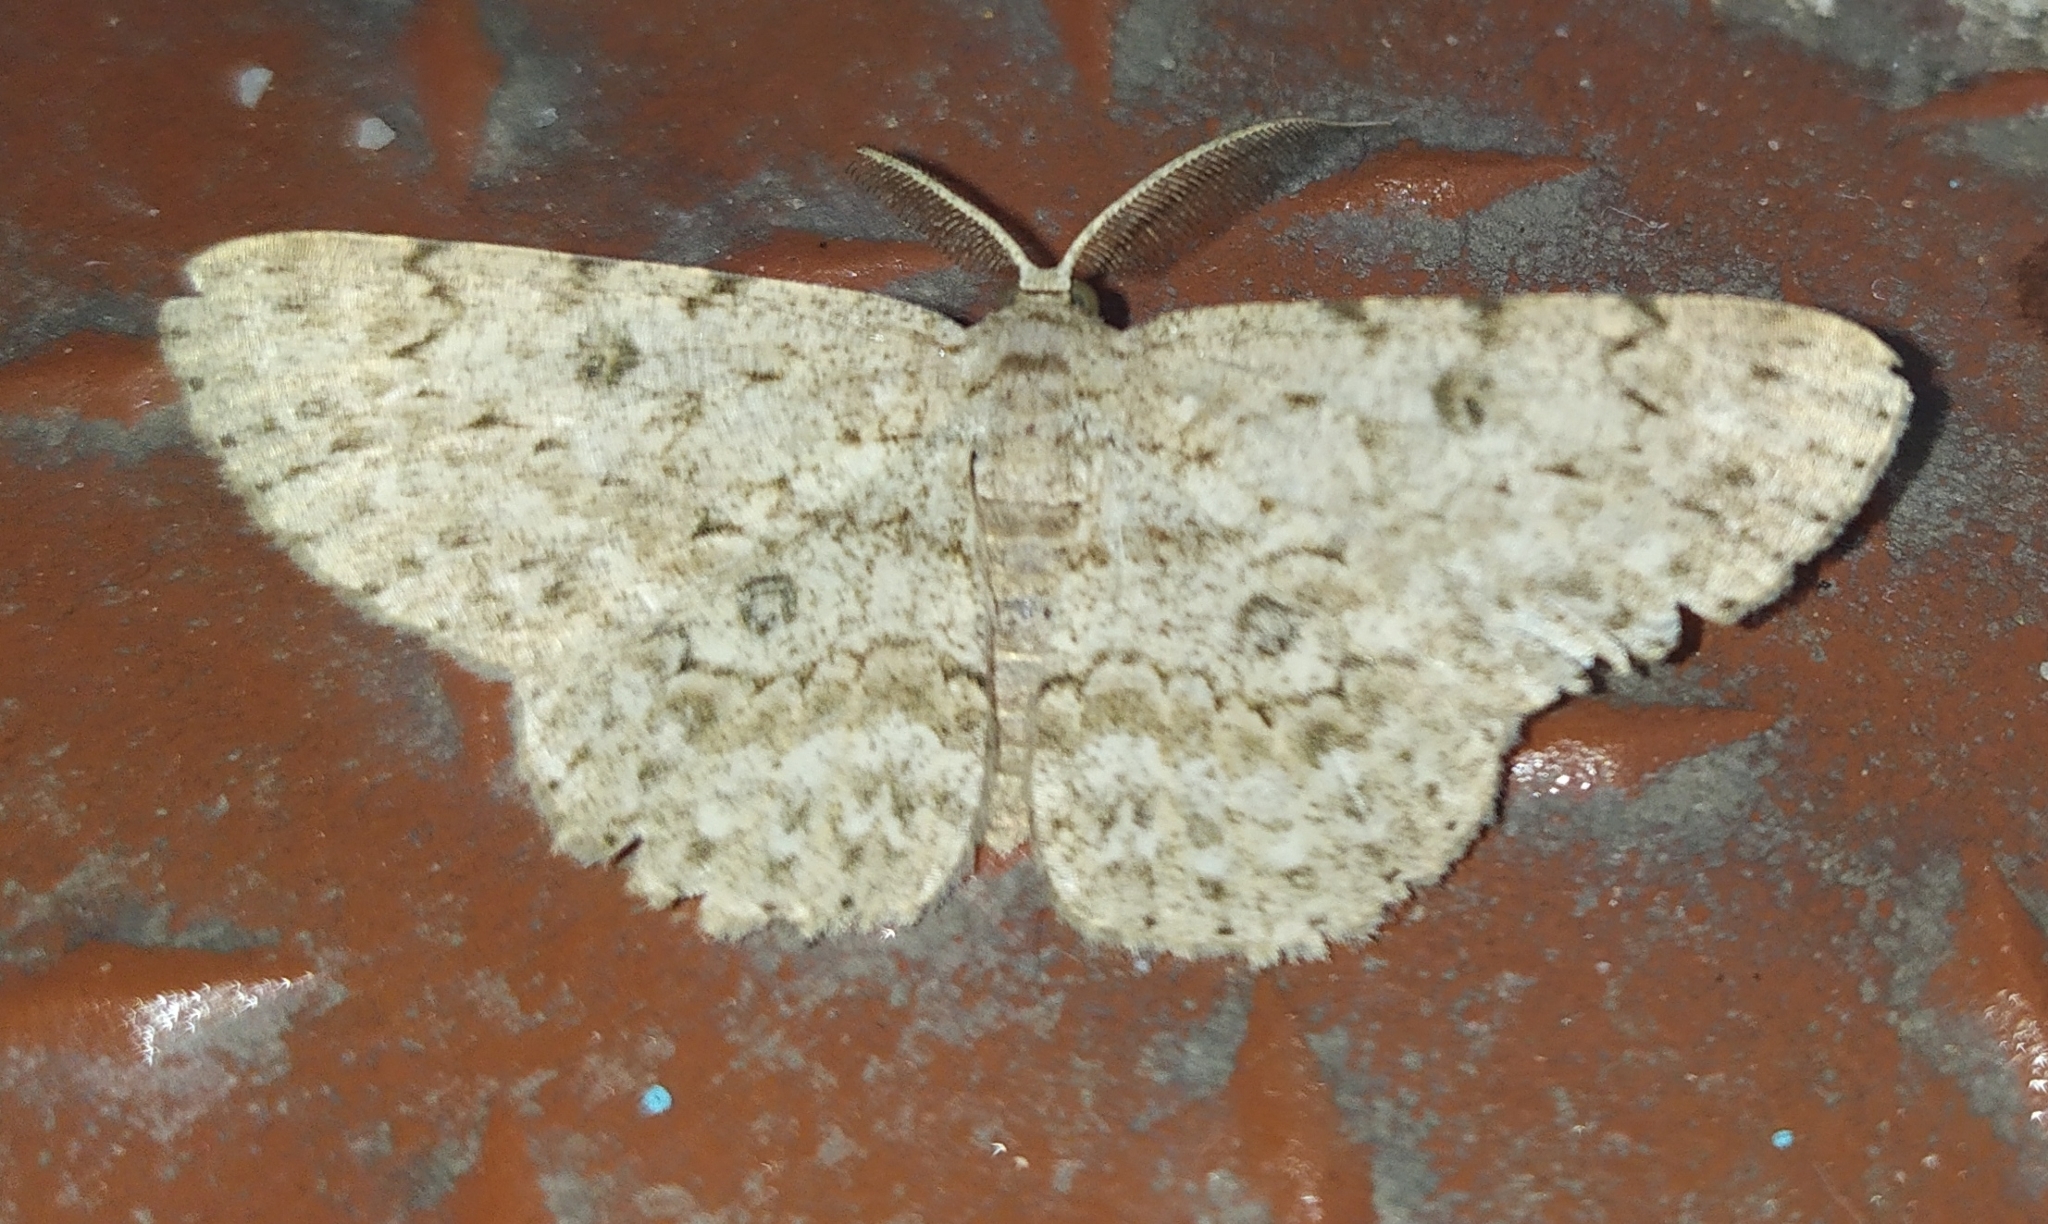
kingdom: Animalia
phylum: Arthropoda
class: Insecta
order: Lepidoptera
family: Geometridae
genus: Hypomecis
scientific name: Hypomecis lioptilaria
